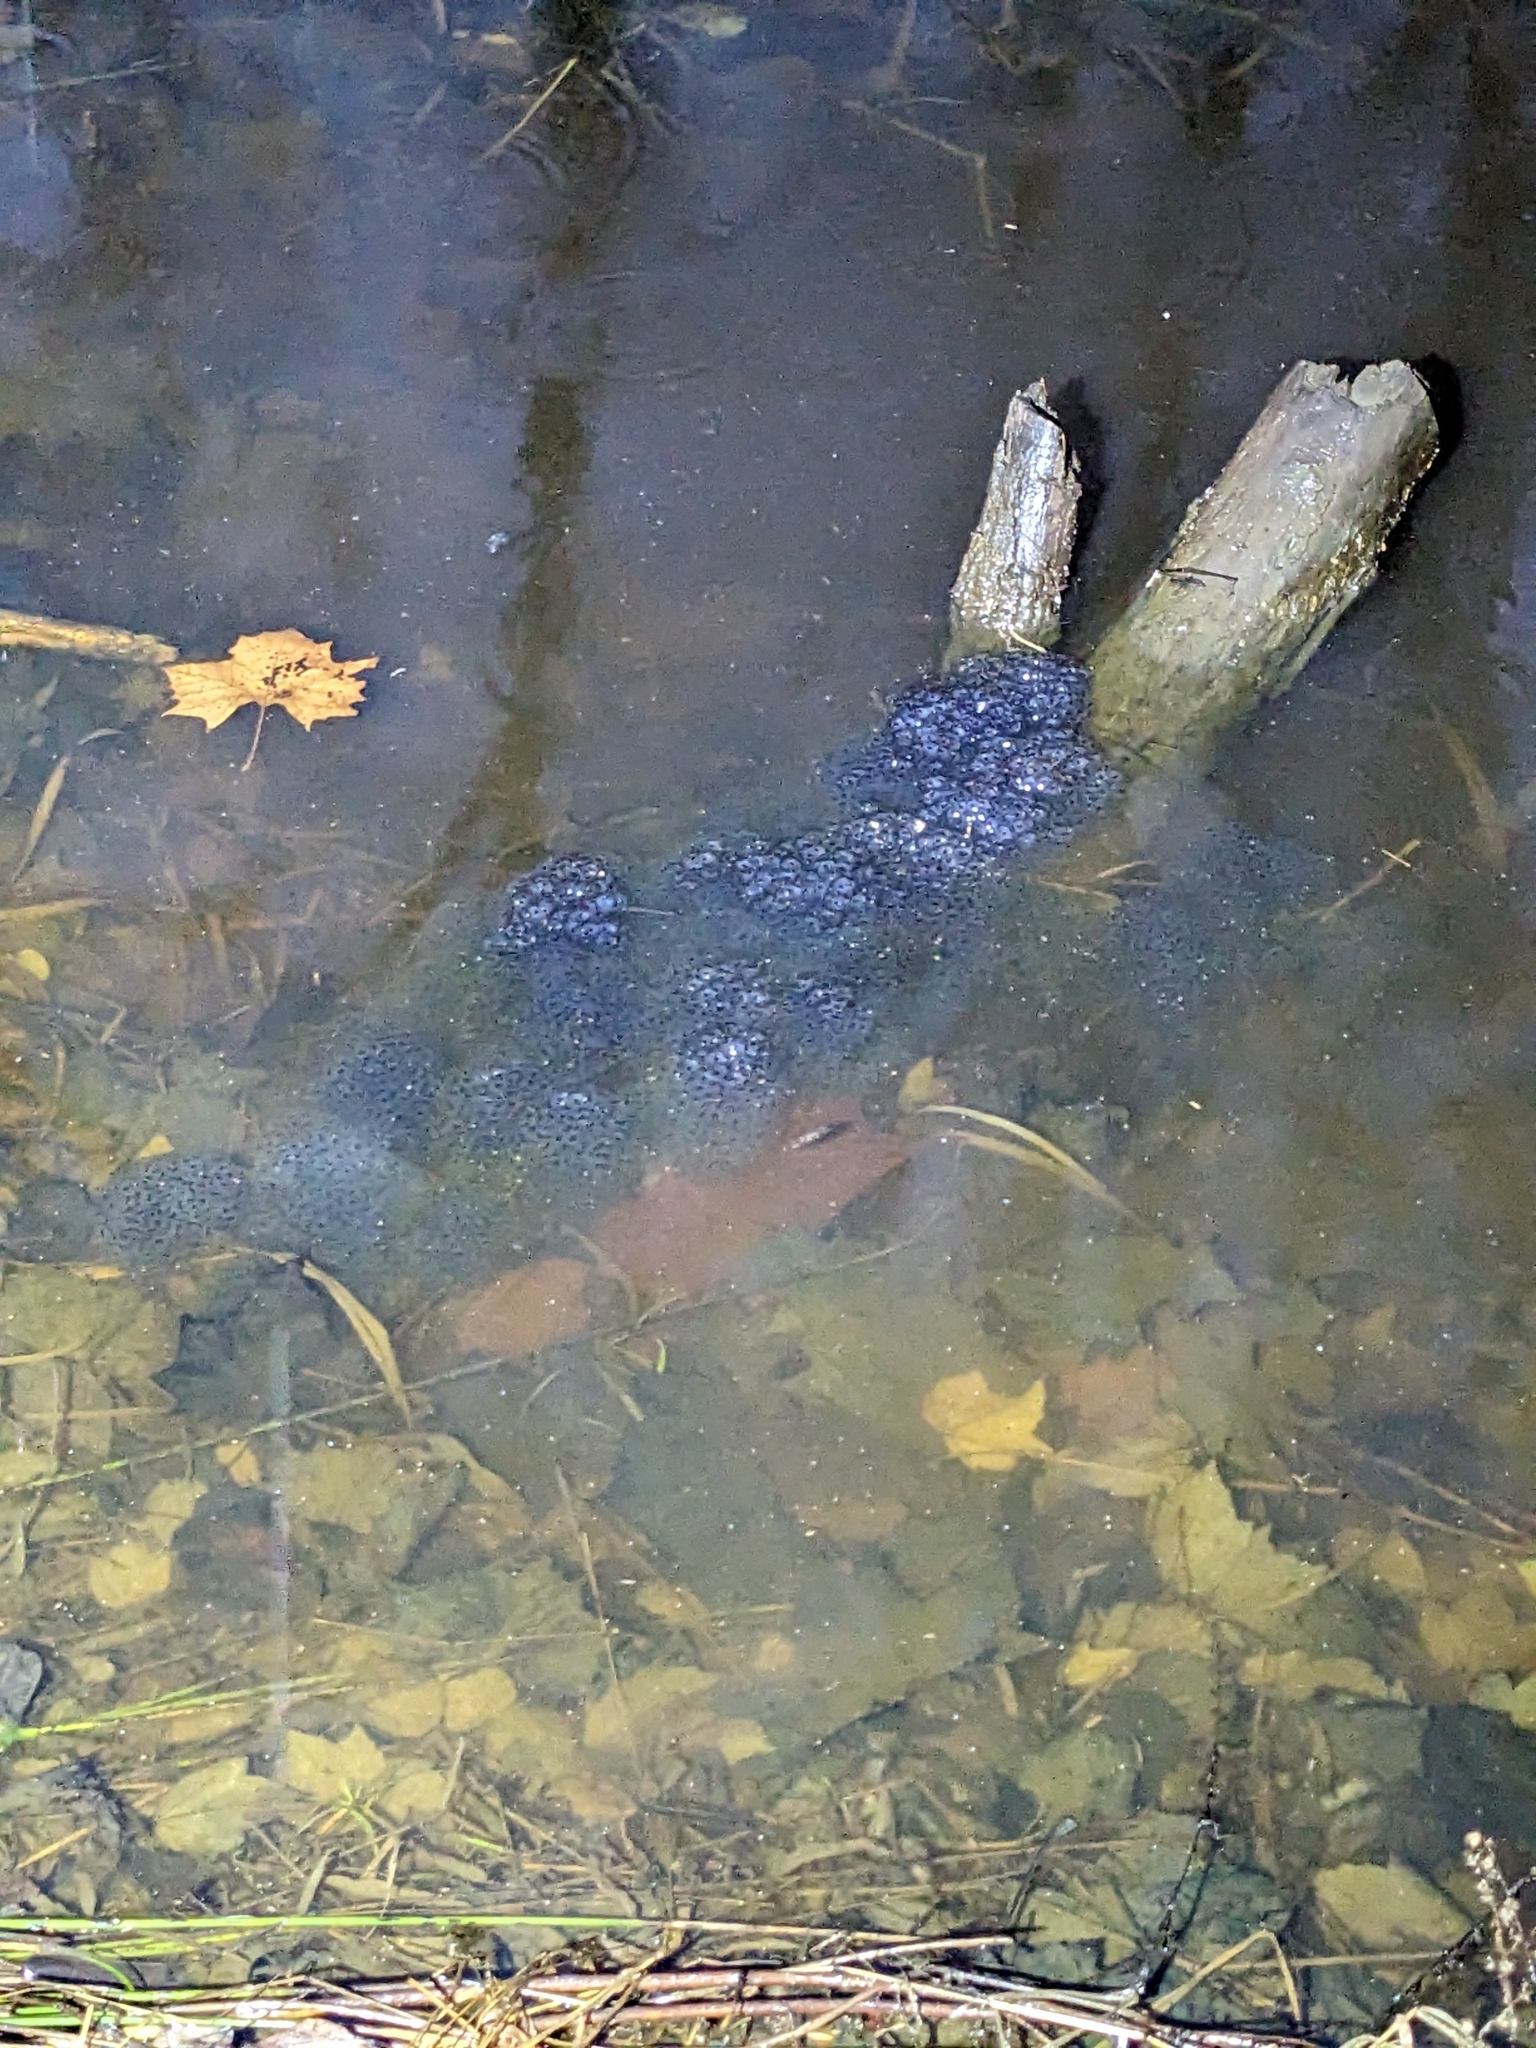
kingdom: Animalia
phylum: Chordata
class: Amphibia
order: Anura
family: Ranidae
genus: Lithobates
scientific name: Lithobates sylvaticus
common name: Wood frog
